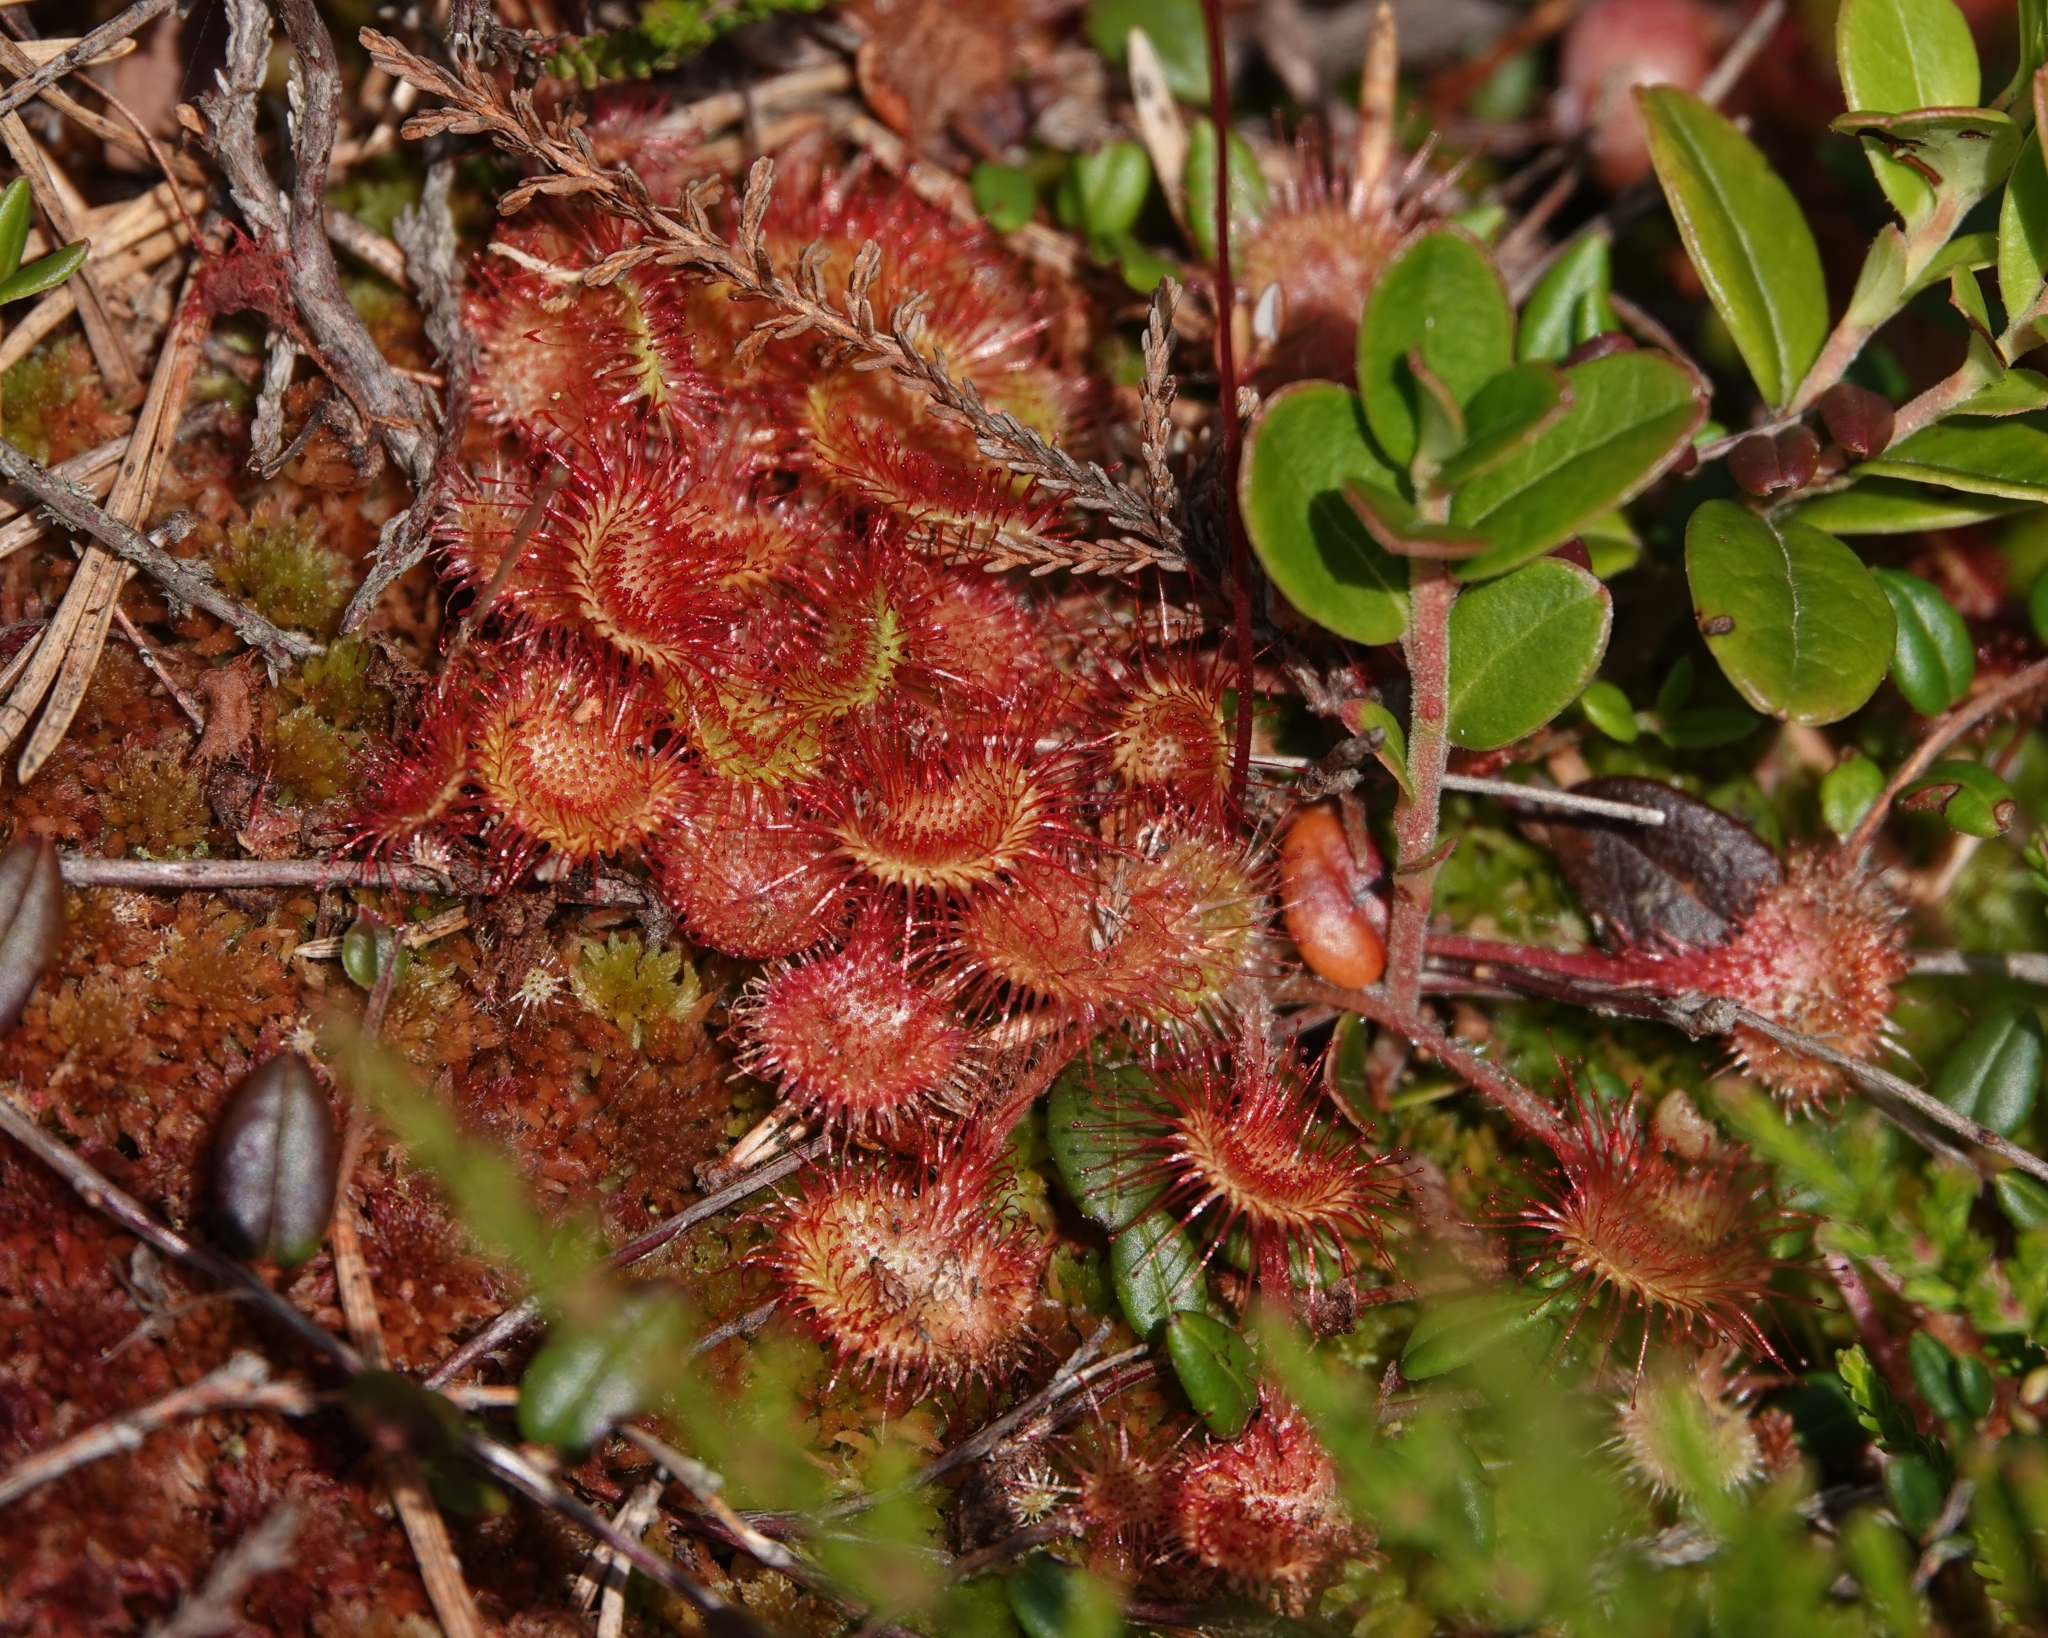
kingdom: Plantae
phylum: Tracheophyta
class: Magnoliopsida
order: Caryophyllales
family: Droseraceae
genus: Drosera
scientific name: Drosera rotundifolia
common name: Round-leaved sundew
